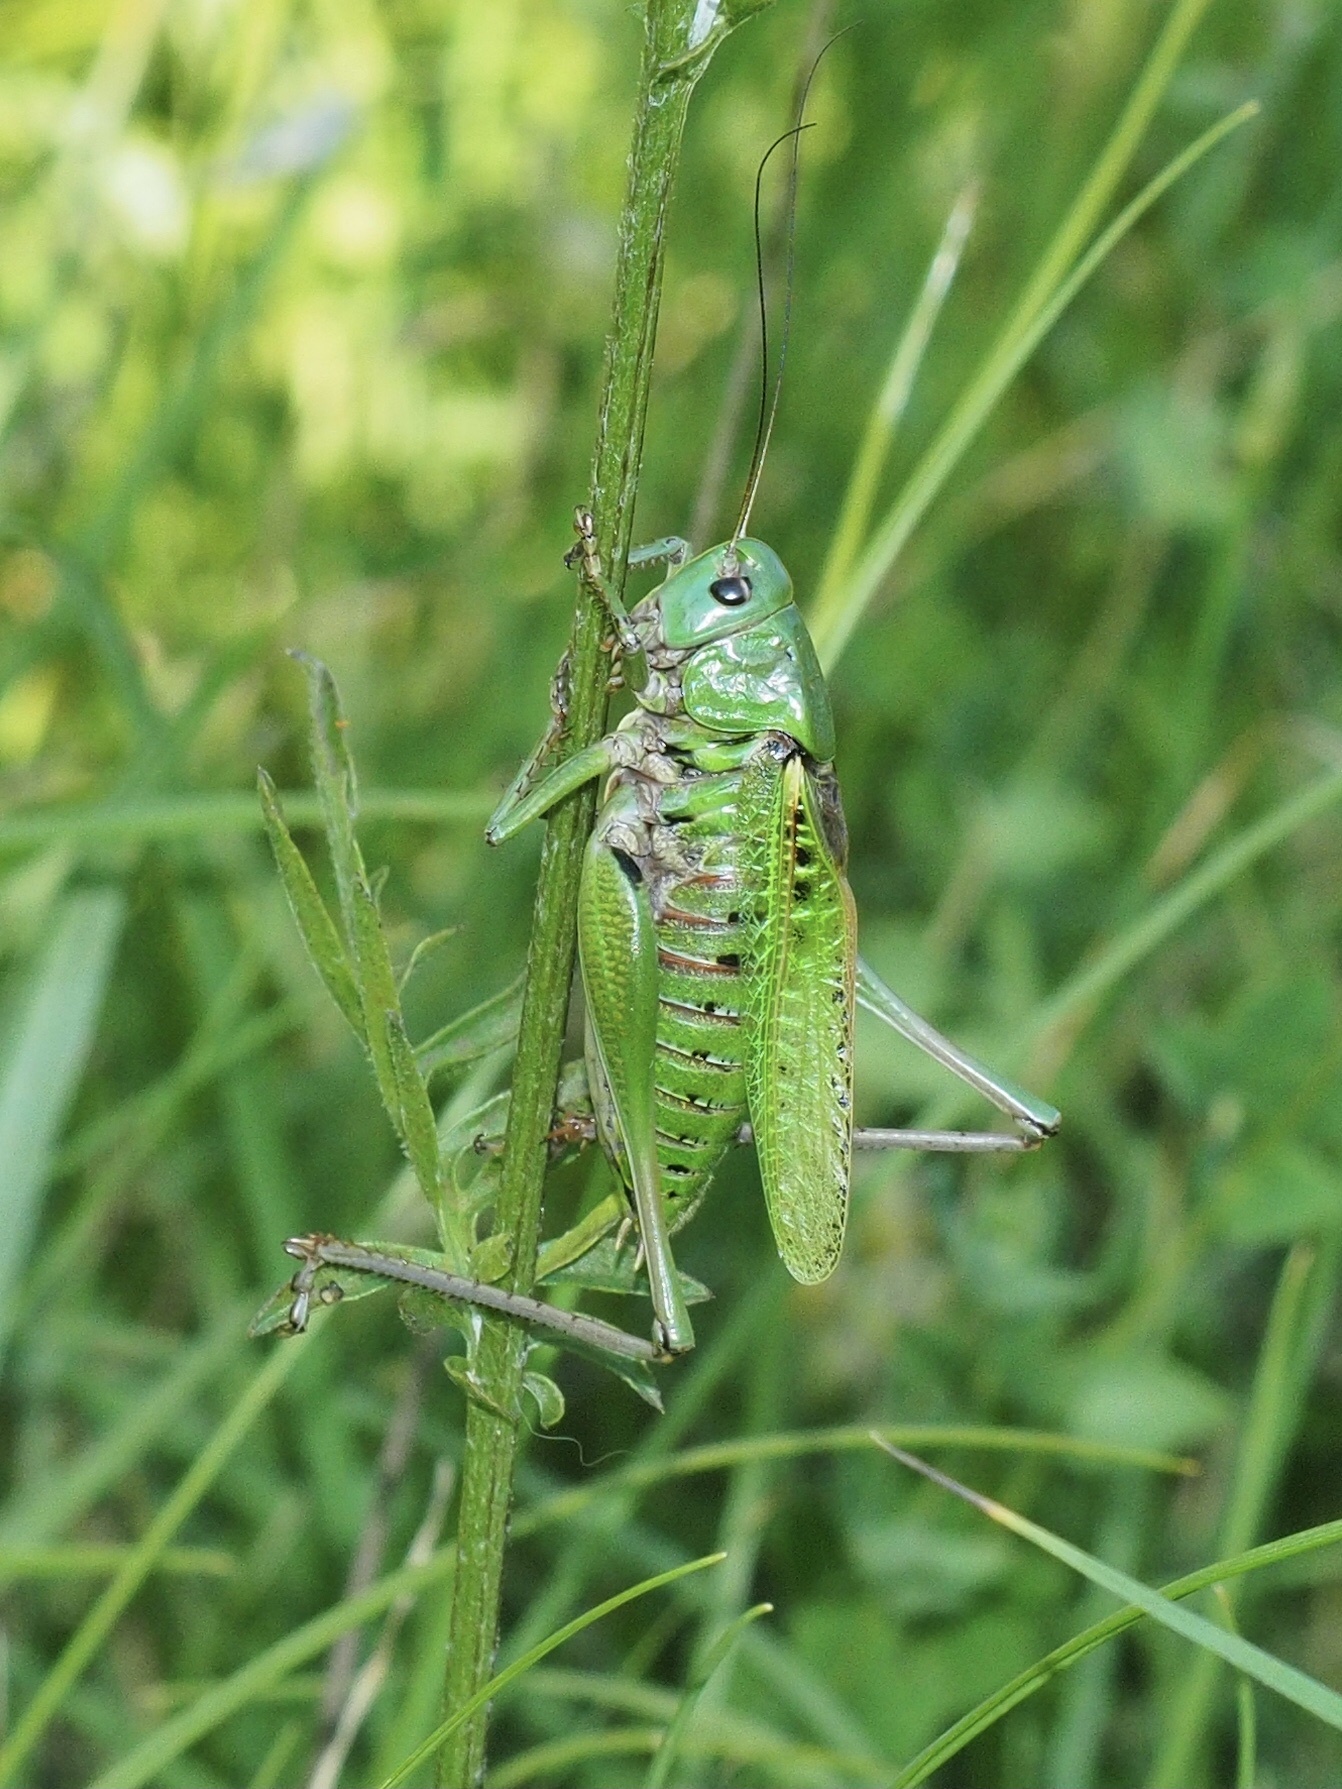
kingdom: Animalia
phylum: Arthropoda
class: Insecta
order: Orthoptera
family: Tettigoniidae
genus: Decticus
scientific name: Decticus verrucivorus
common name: Wart-biter
